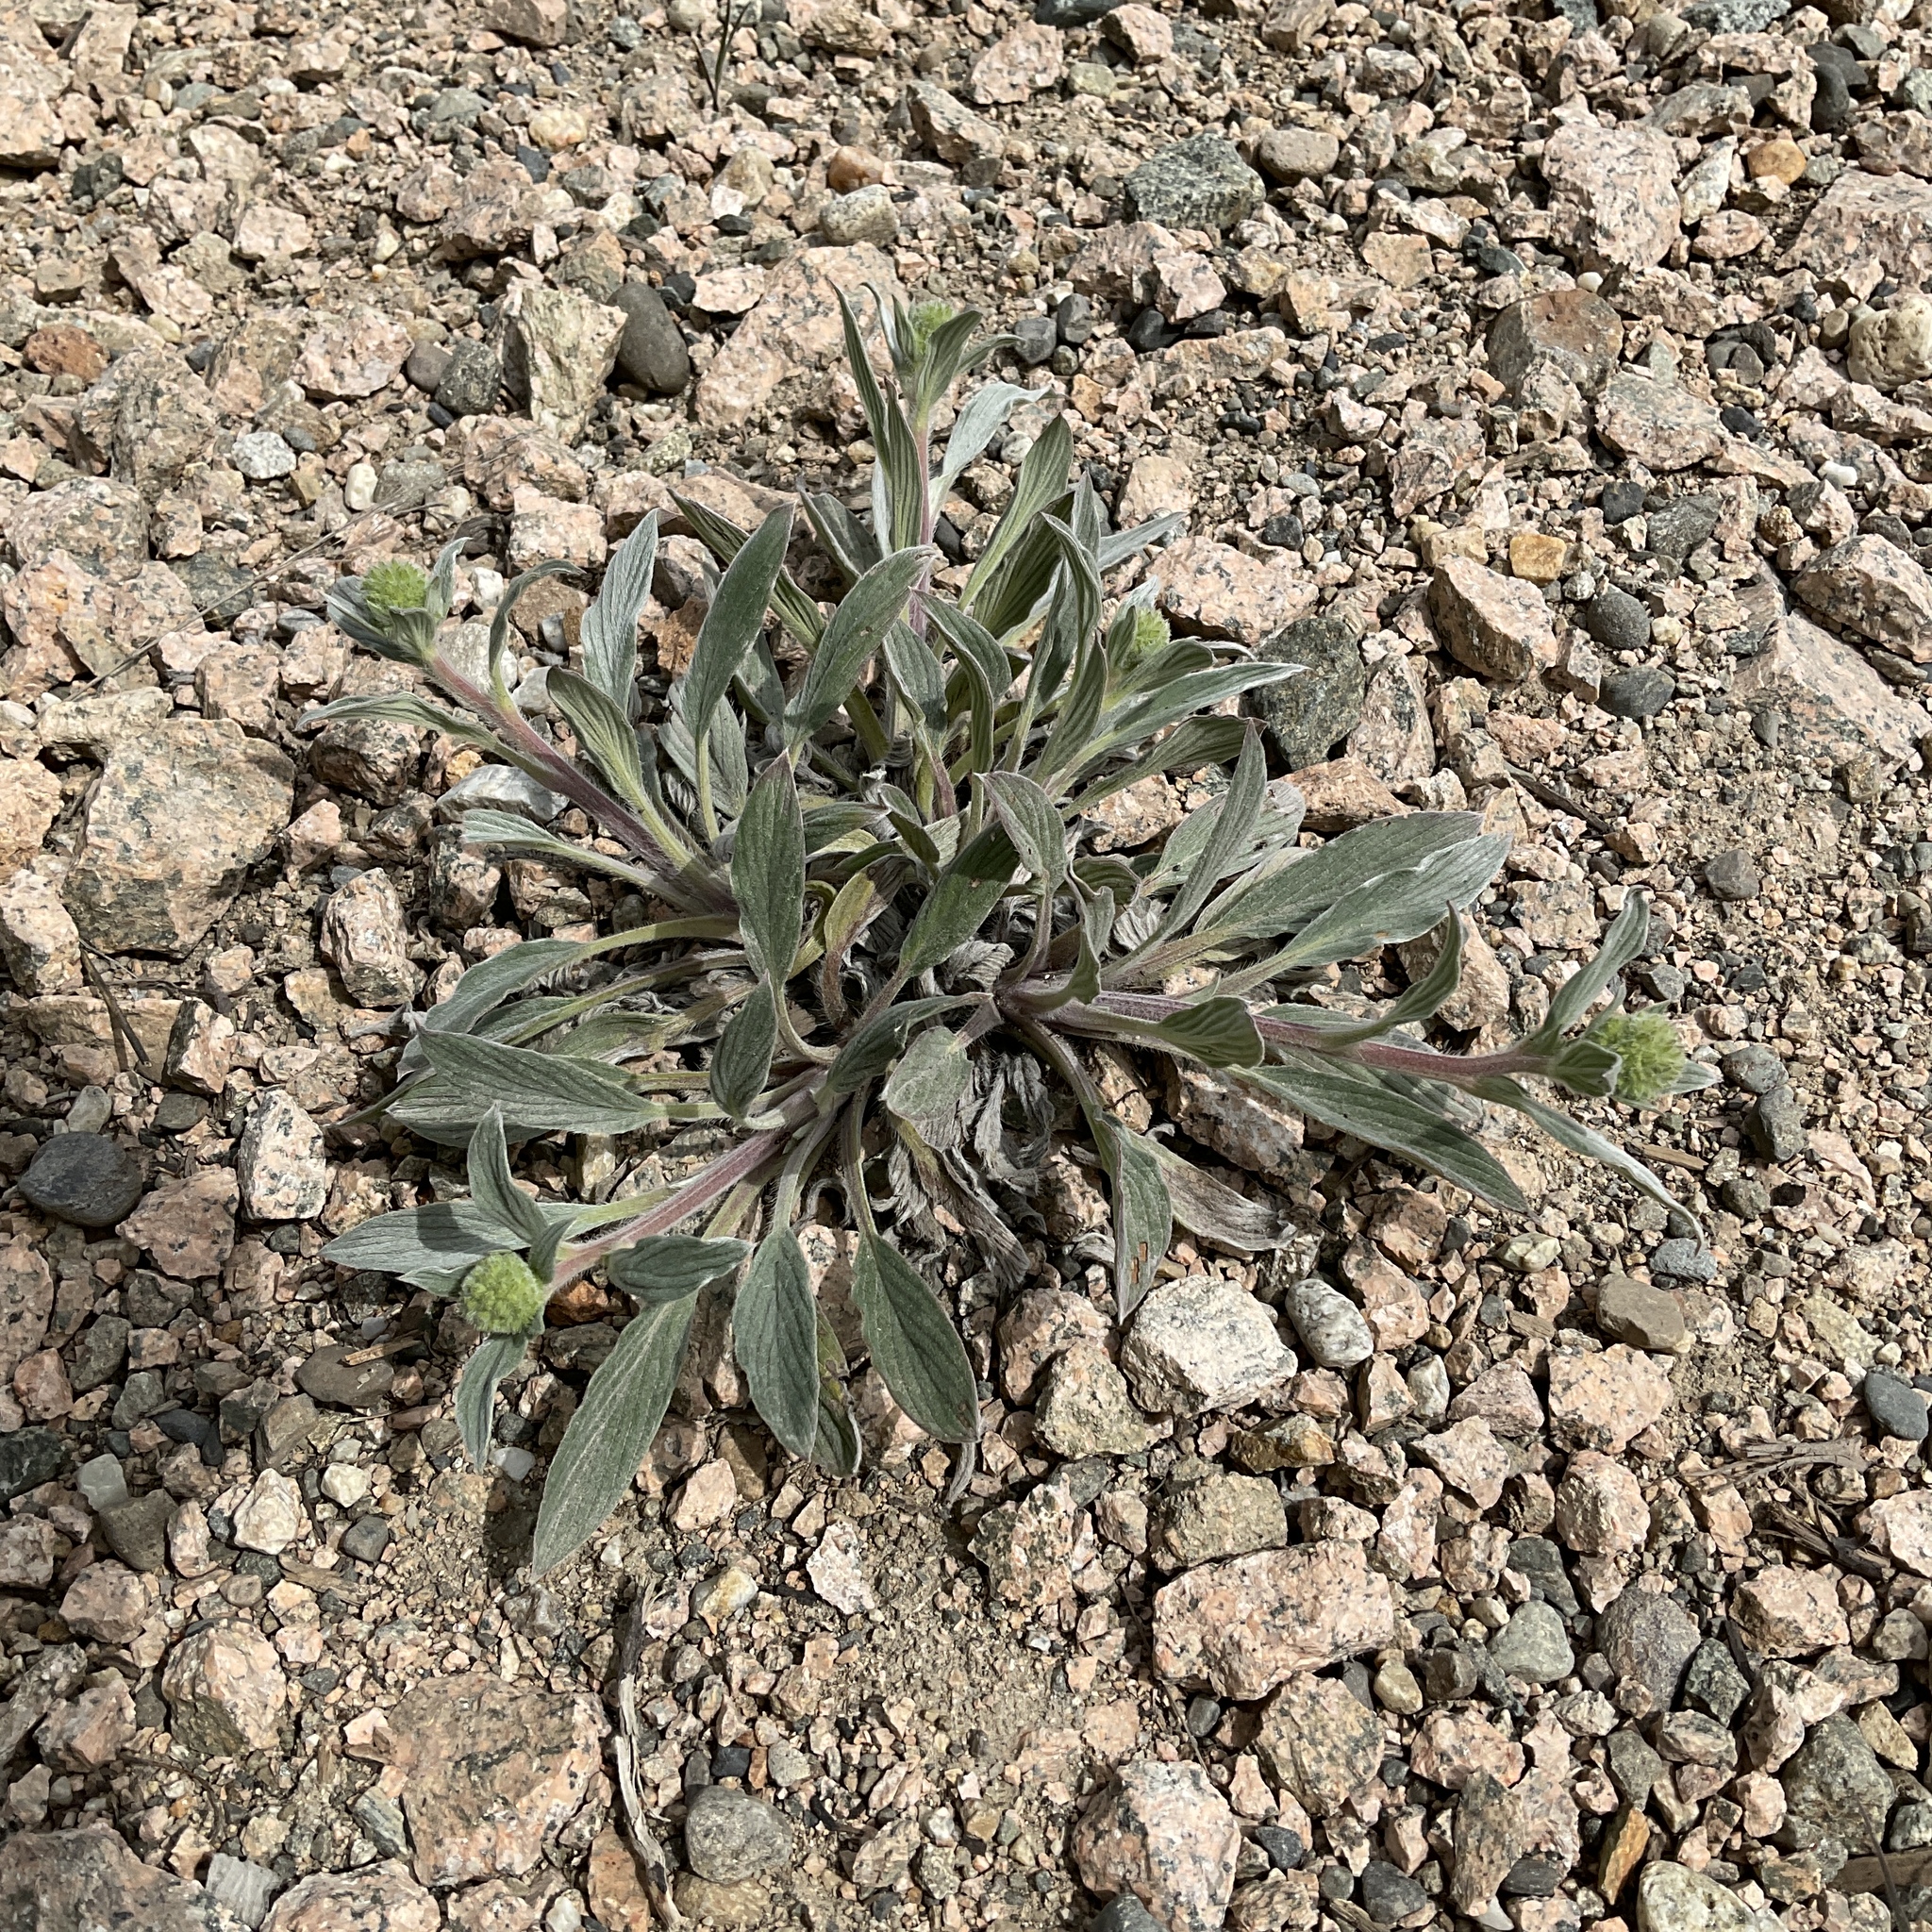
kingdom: Plantae
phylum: Tracheophyta
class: Magnoliopsida
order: Boraginales
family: Hydrophyllaceae
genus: Phacelia
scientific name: Phacelia hastata
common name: Silver-leaved phacelia
